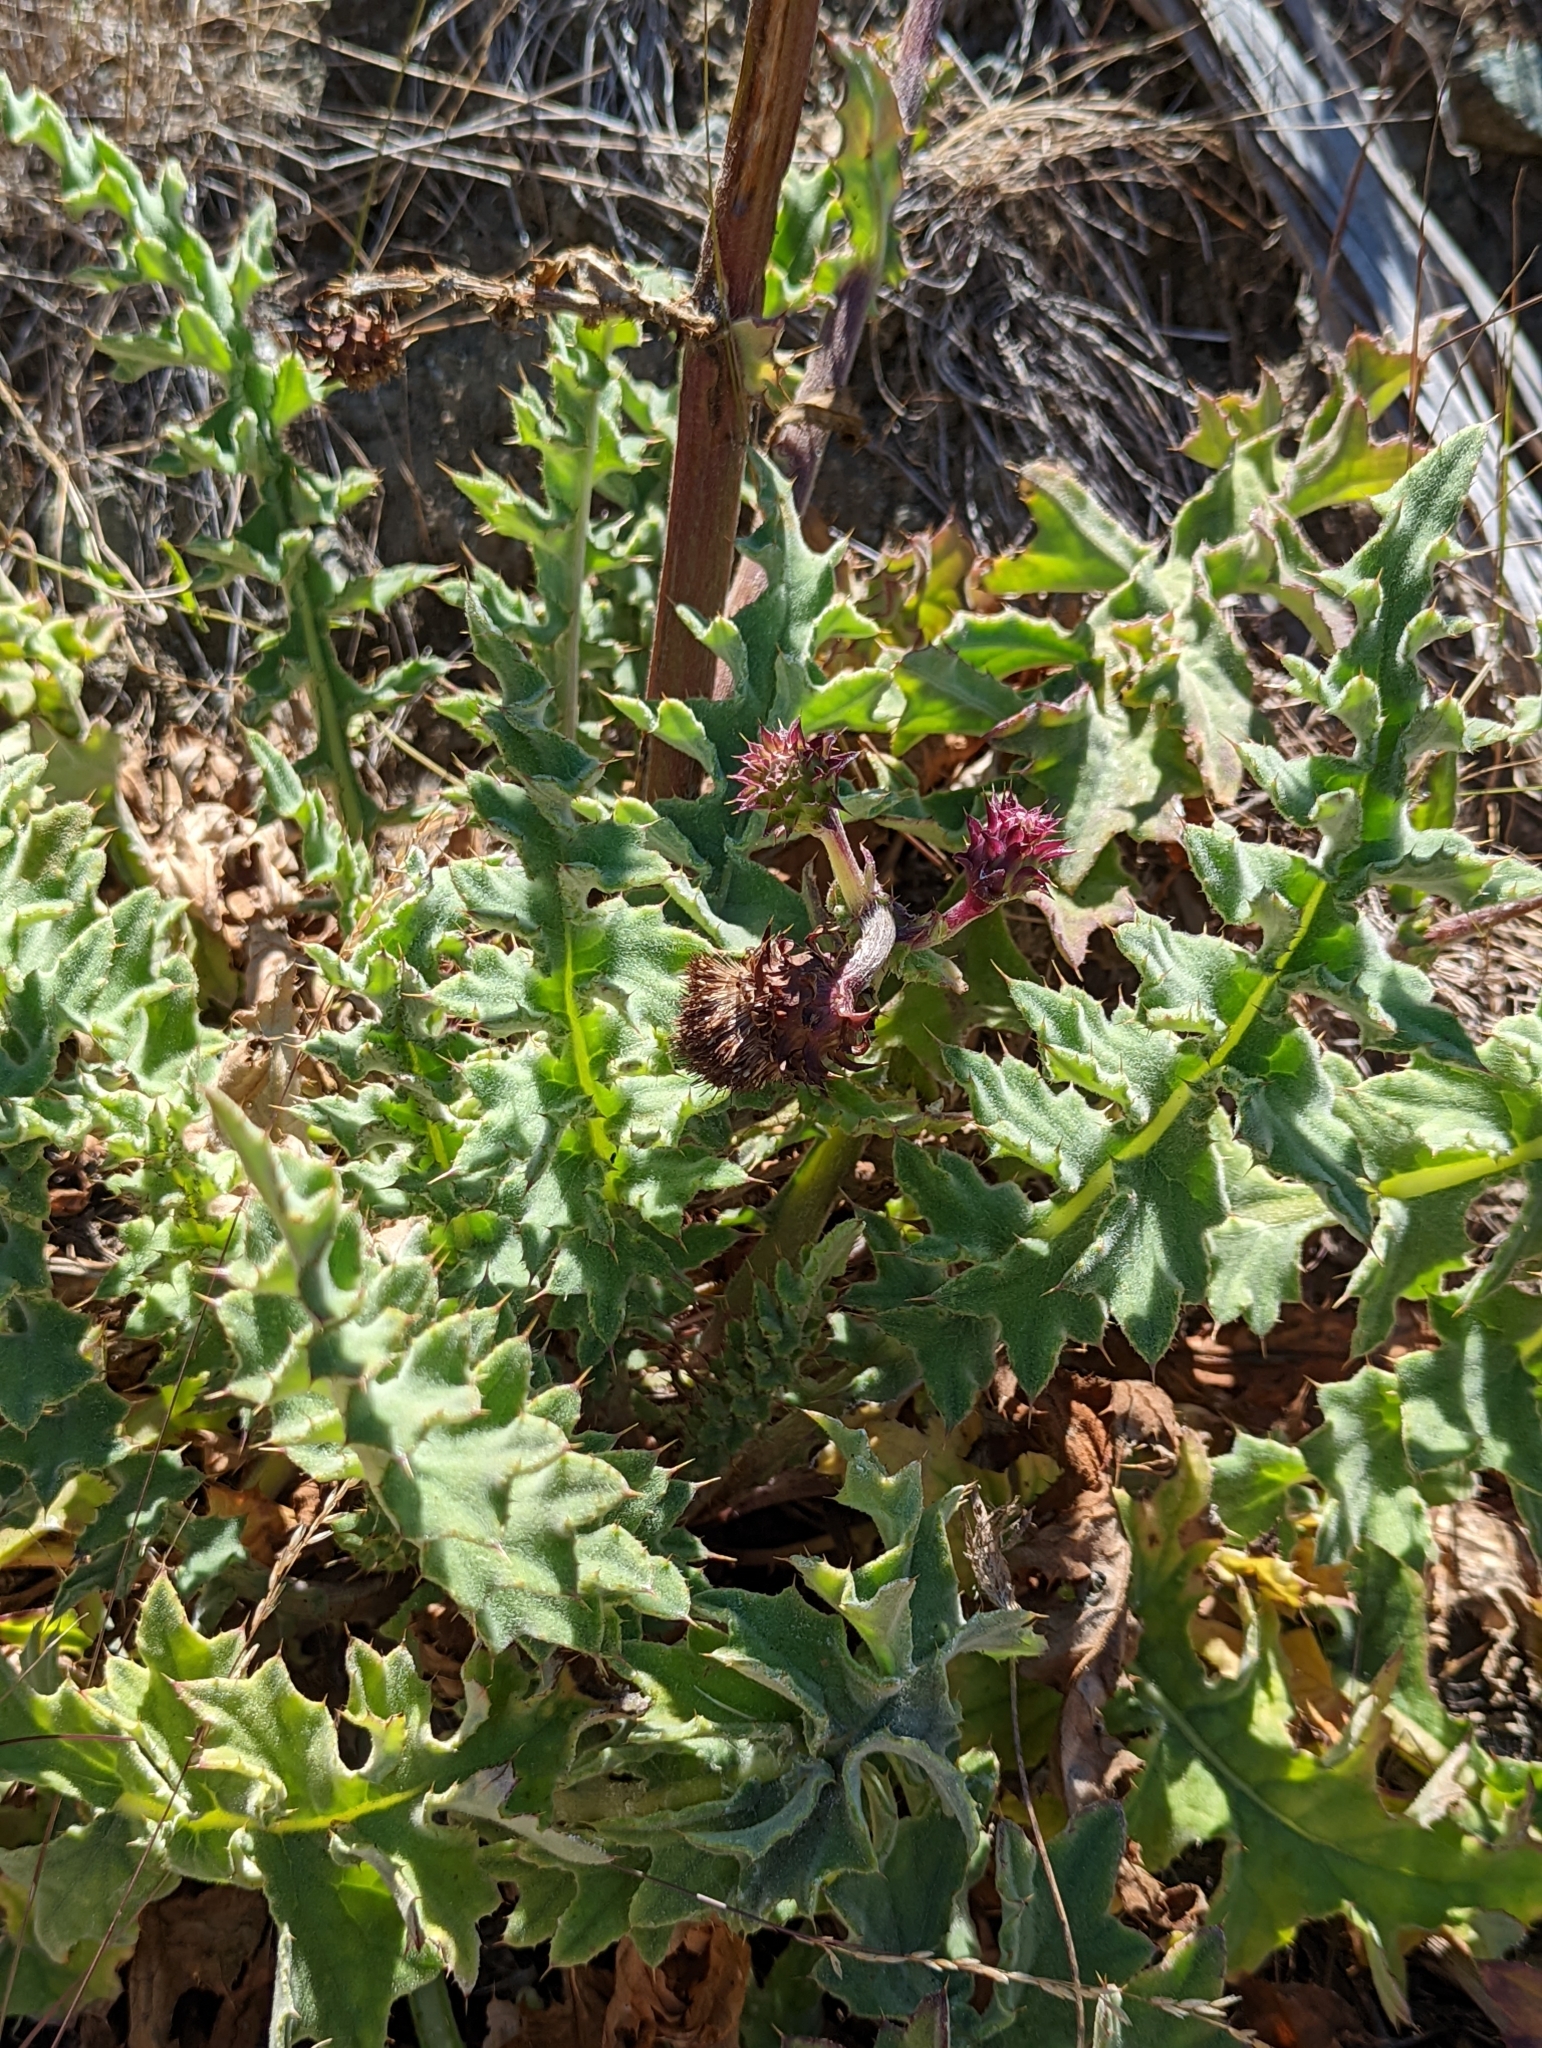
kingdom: Plantae
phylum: Tracheophyta
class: Magnoliopsida
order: Asterales
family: Asteraceae
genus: Cirsium
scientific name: Cirsium fontinale
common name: Fountain thistle
